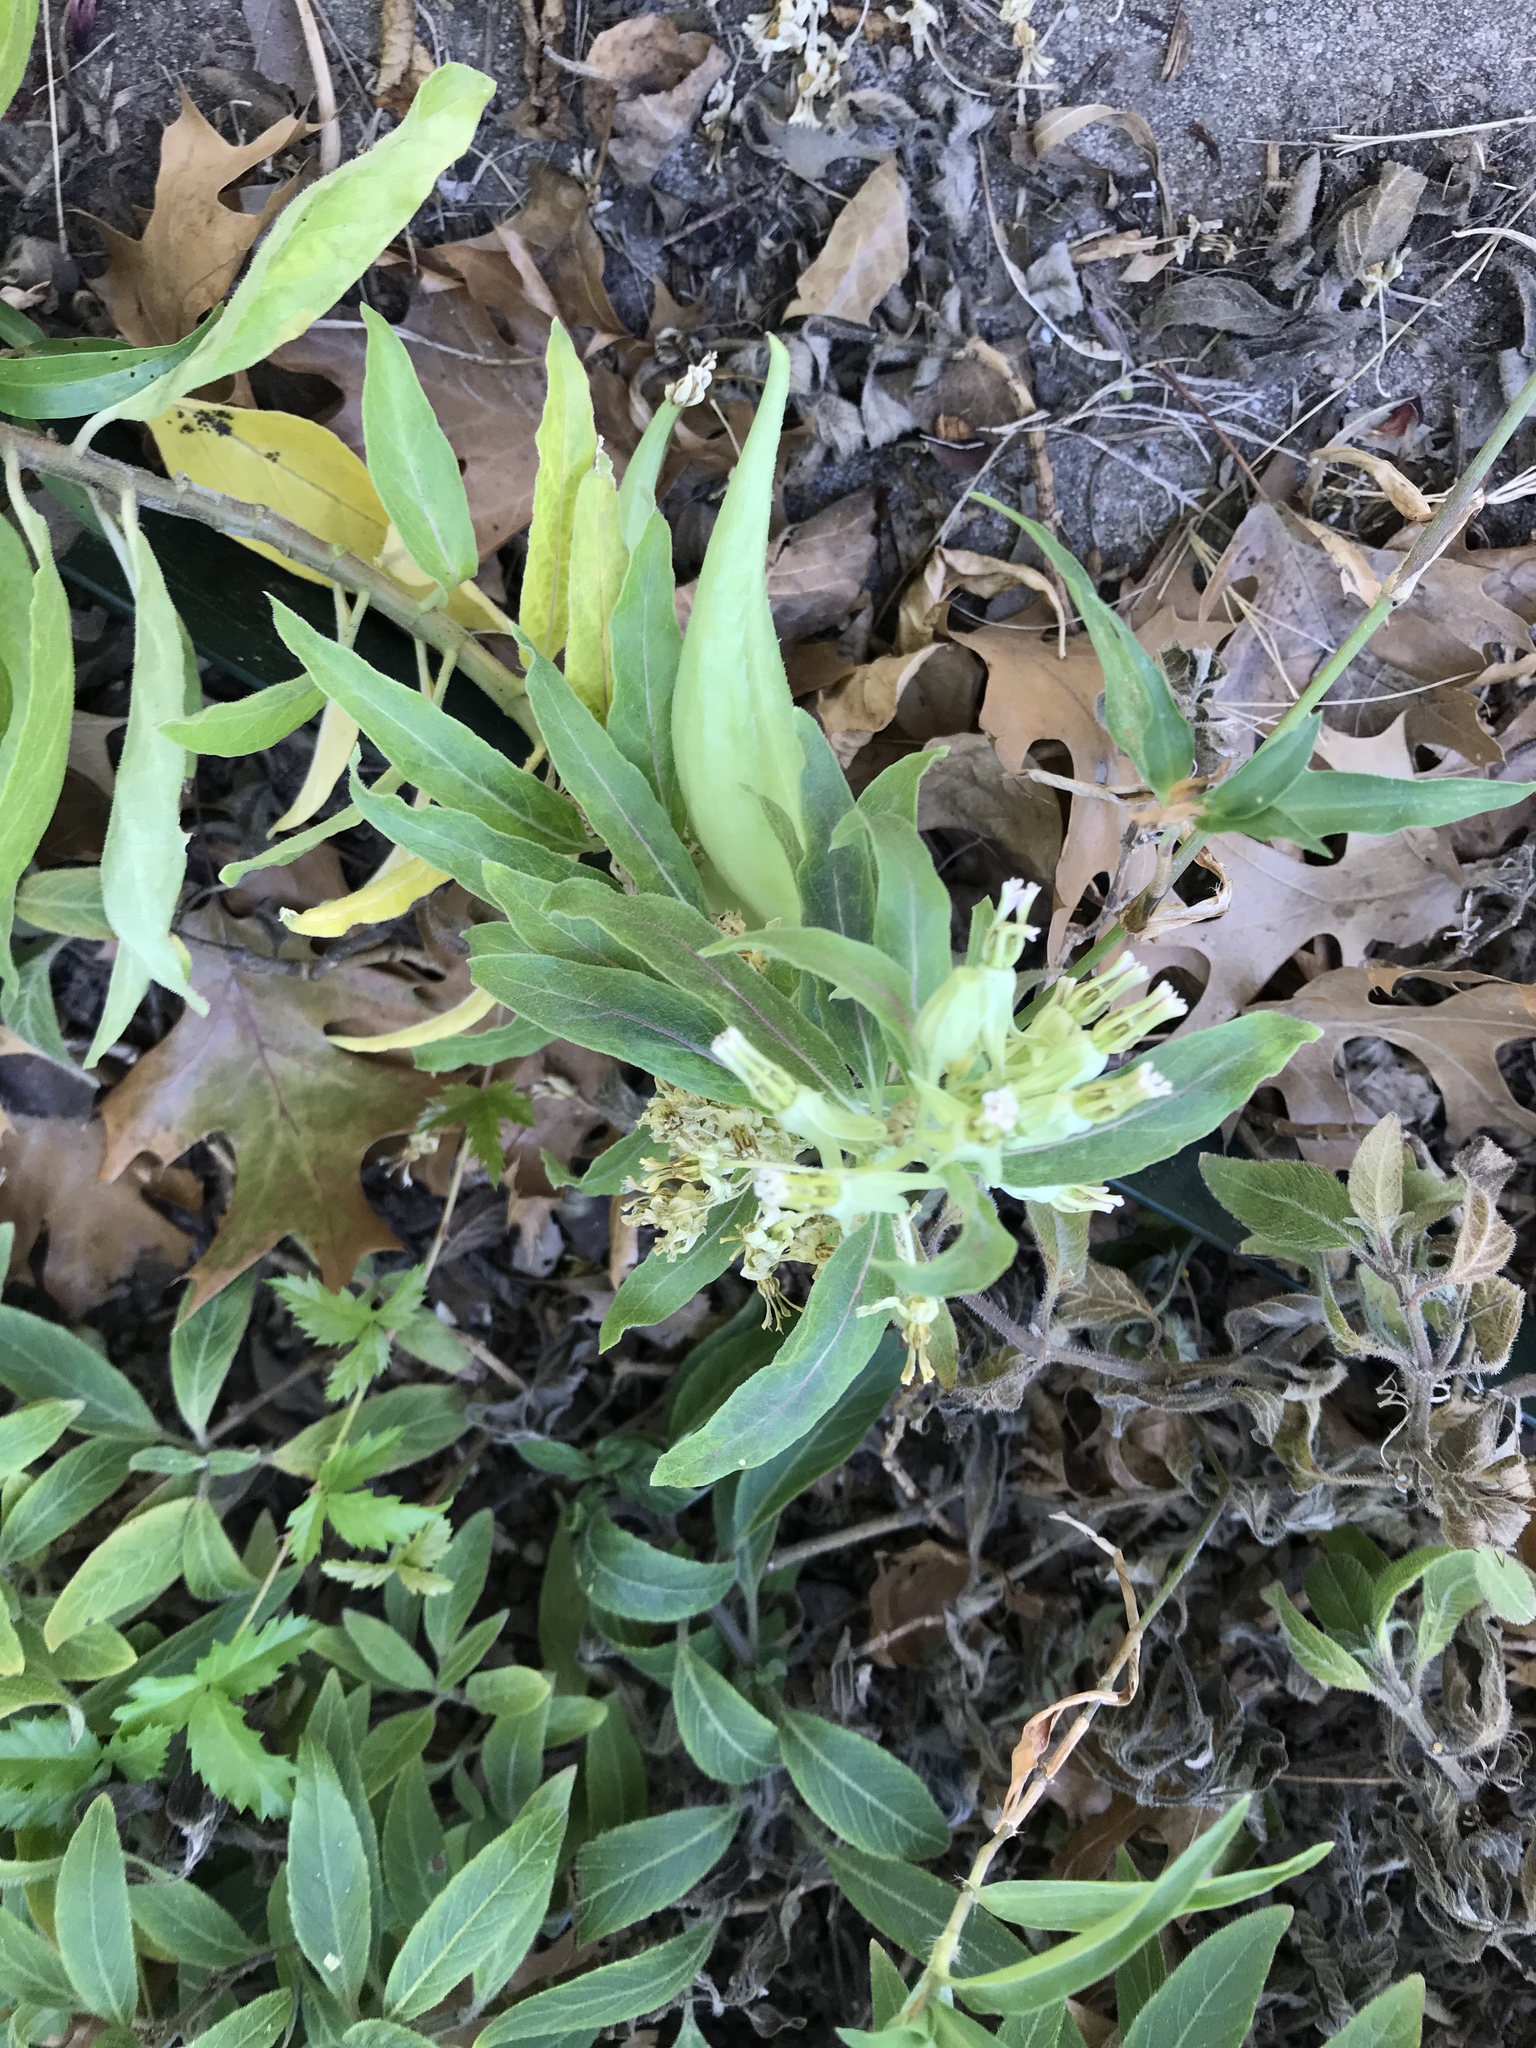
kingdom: Plantae
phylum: Tracheophyta
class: Magnoliopsida
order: Gentianales
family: Apocynaceae
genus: Asclepias
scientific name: Asclepias oenotheroides
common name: Zizotes milkweed
